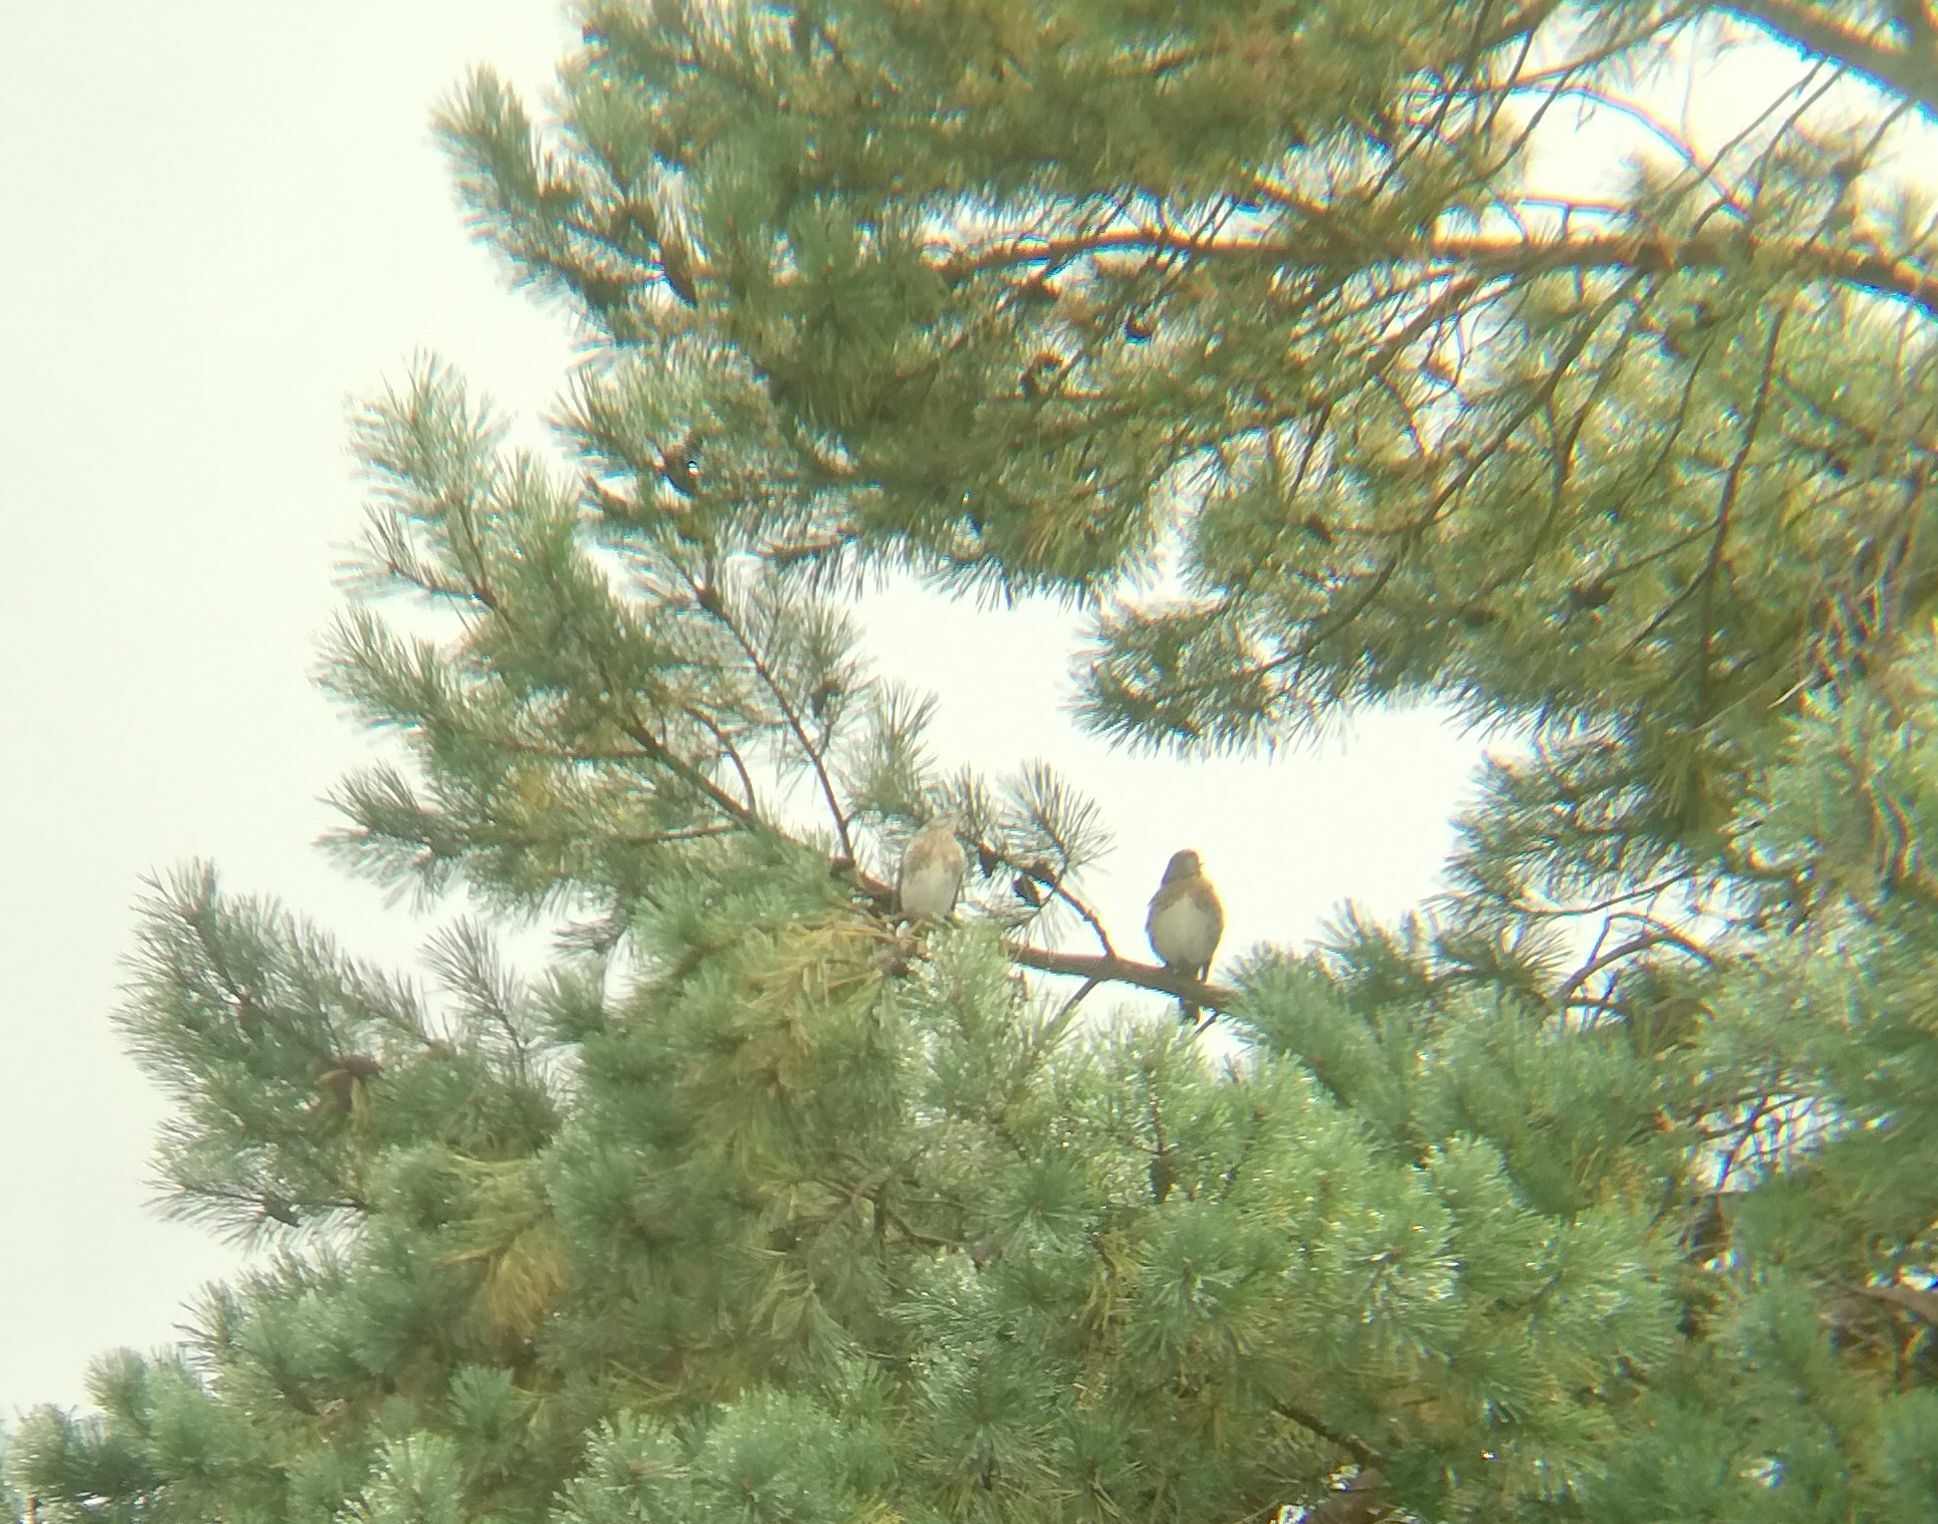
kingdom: Animalia
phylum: Chordata
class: Aves
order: Passeriformes
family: Turdidae
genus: Turdus
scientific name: Turdus pilaris
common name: Fieldfare
